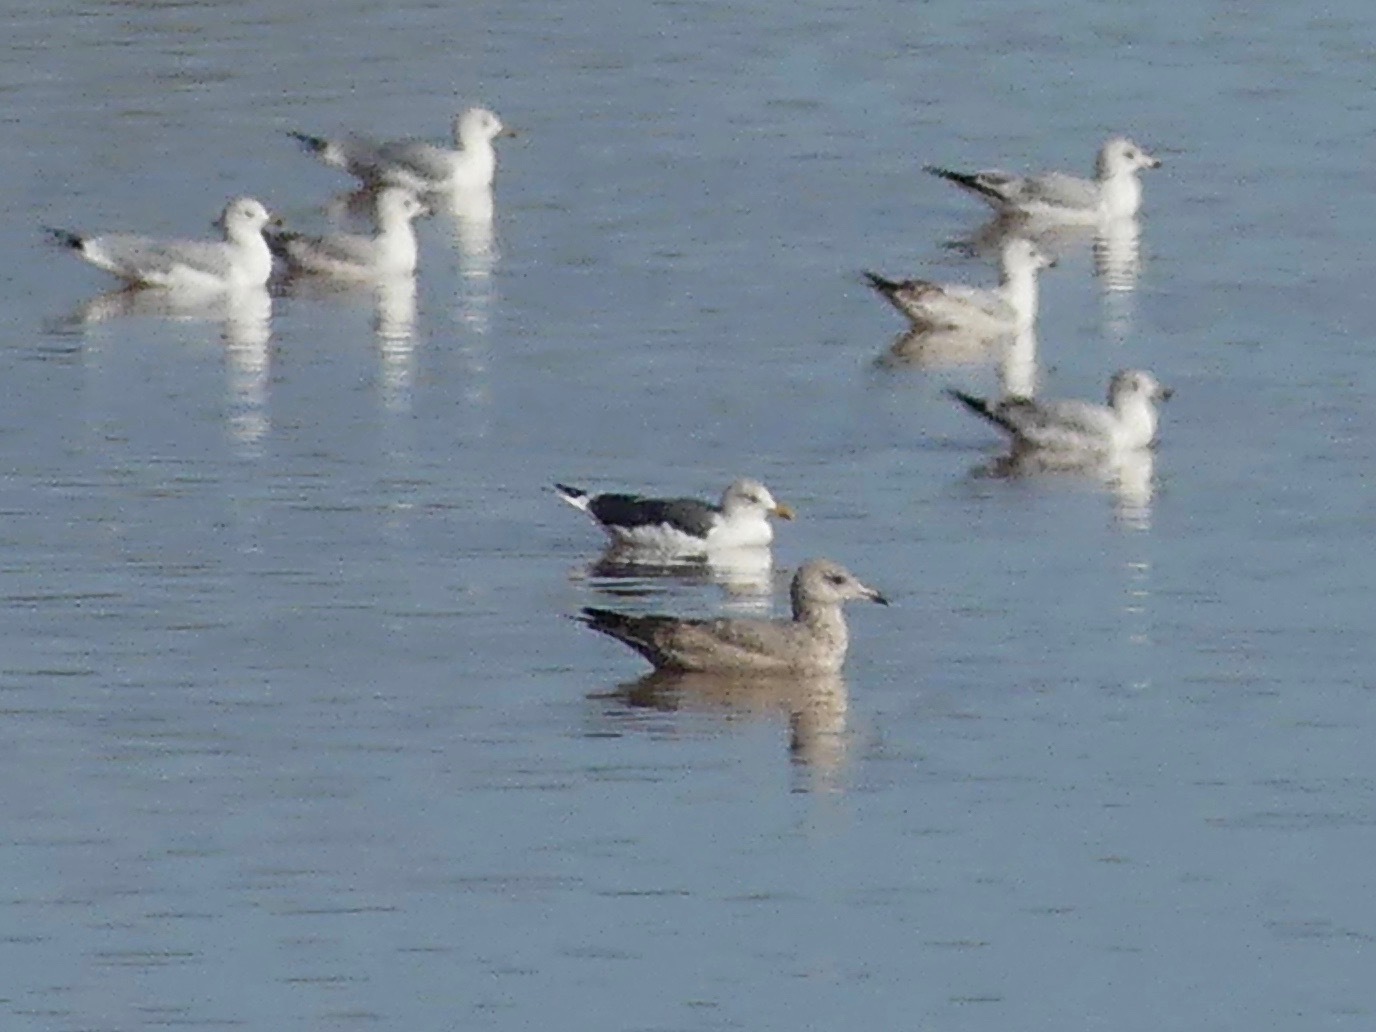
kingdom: Animalia
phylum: Chordata
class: Aves
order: Charadriiformes
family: Laridae
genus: Larus
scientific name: Larus fuscus
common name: Lesser black-backed gull
